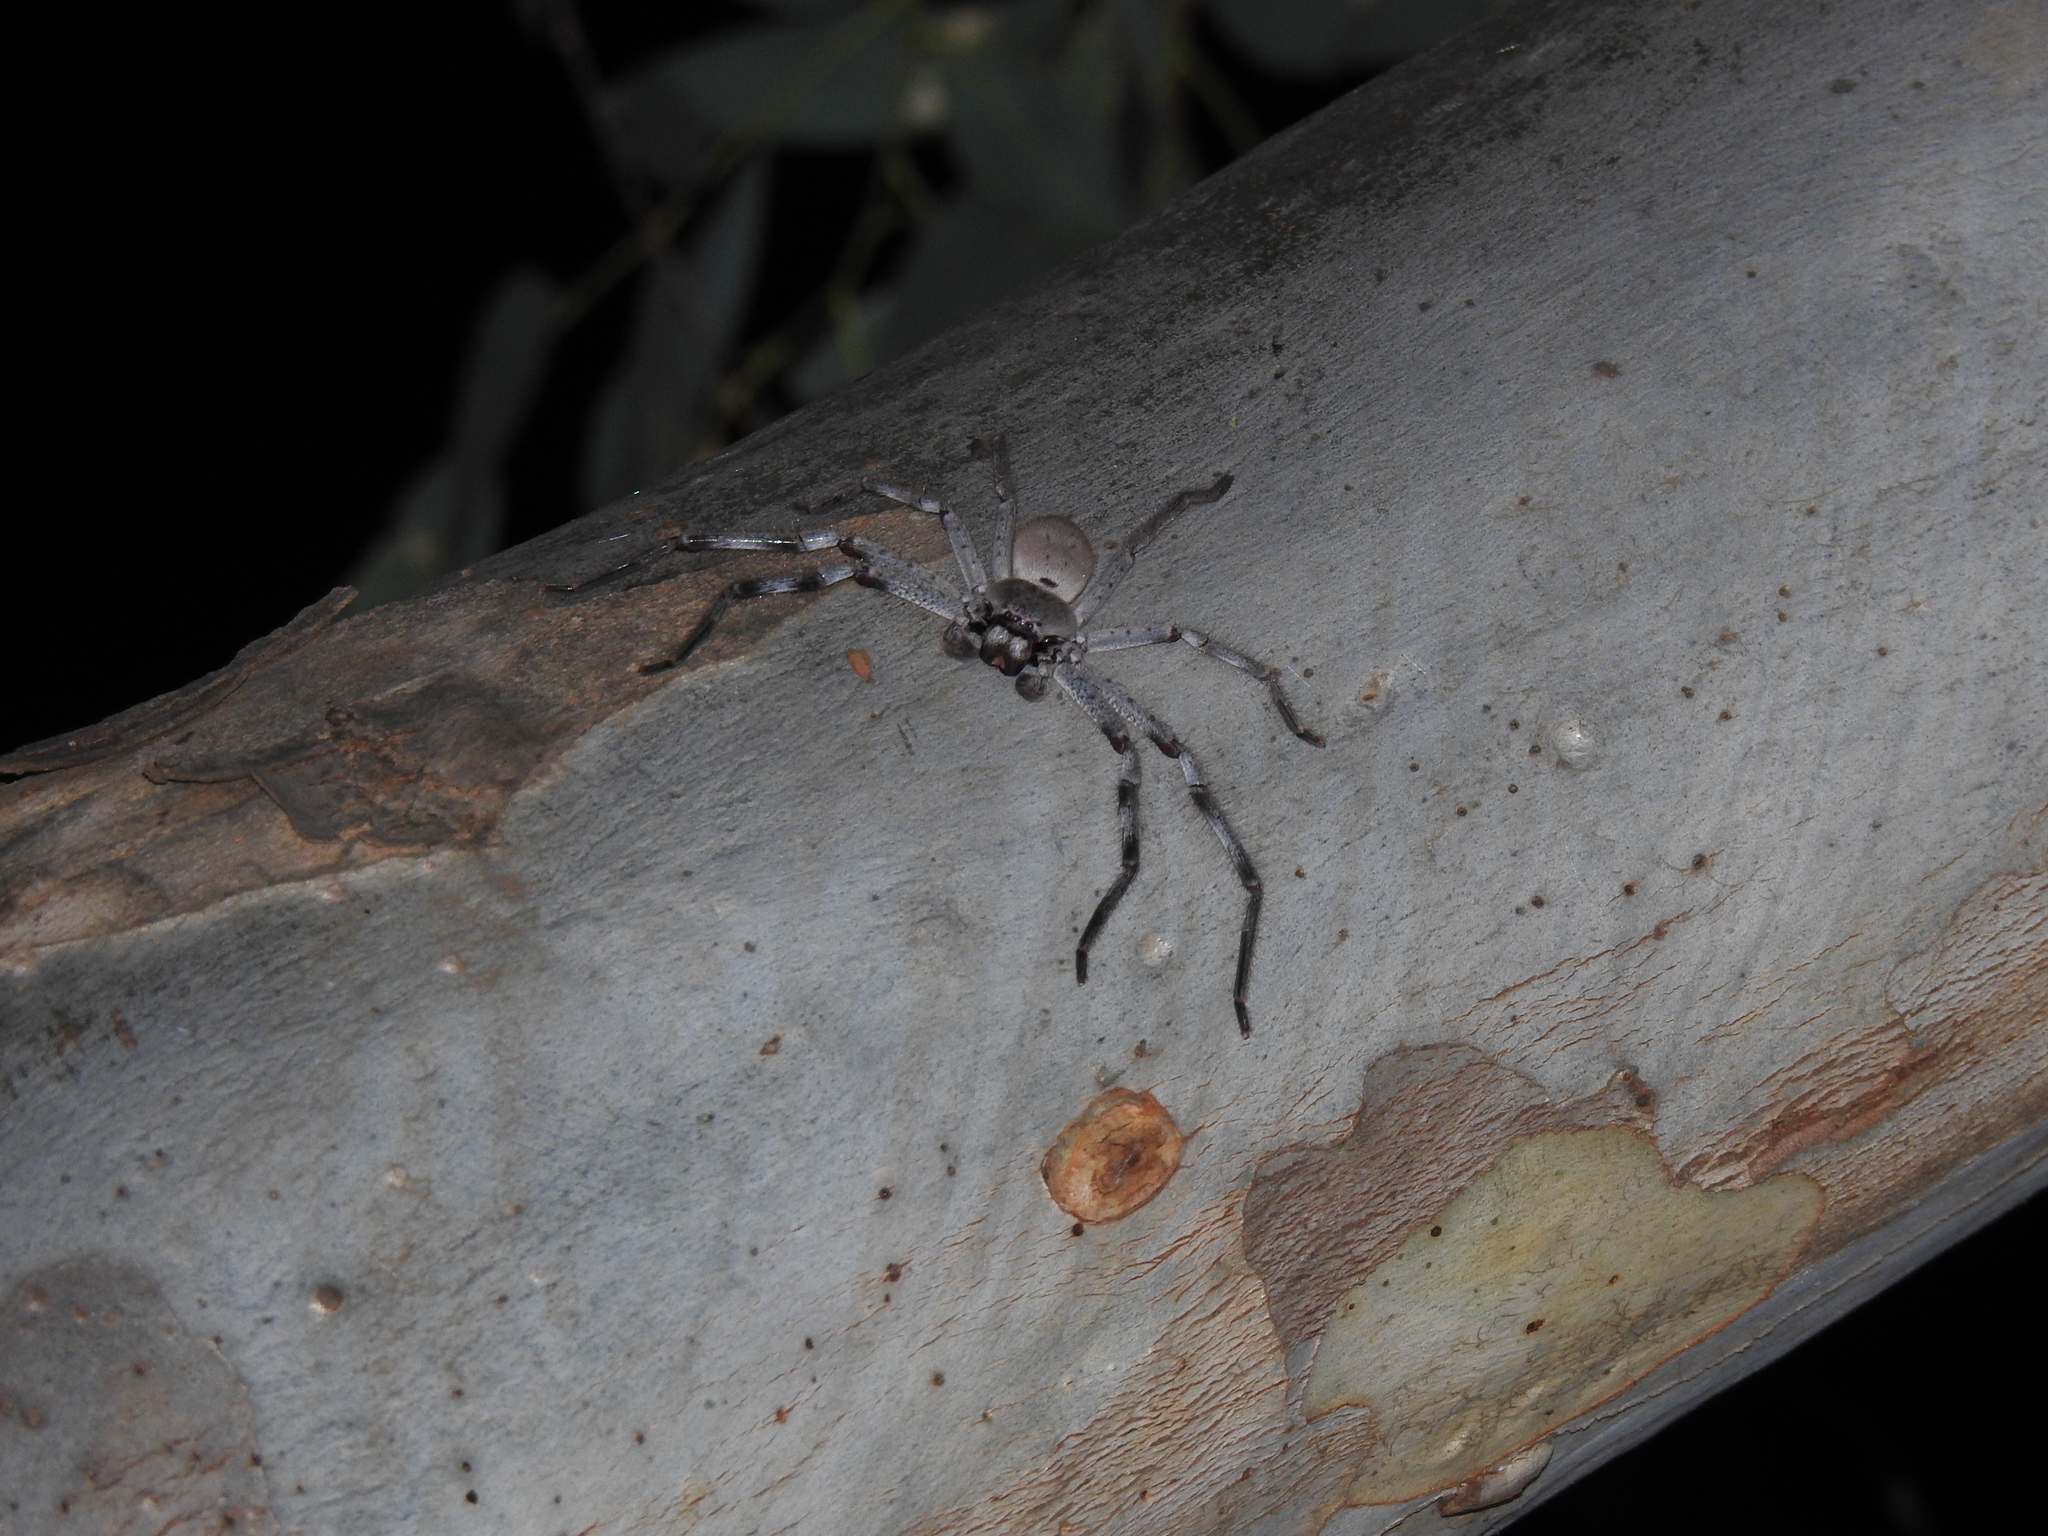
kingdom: Animalia
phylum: Arthropoda
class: Arachnida
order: Araneae
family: Sparassidae
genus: Isopeda
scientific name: Isopeda prolata
